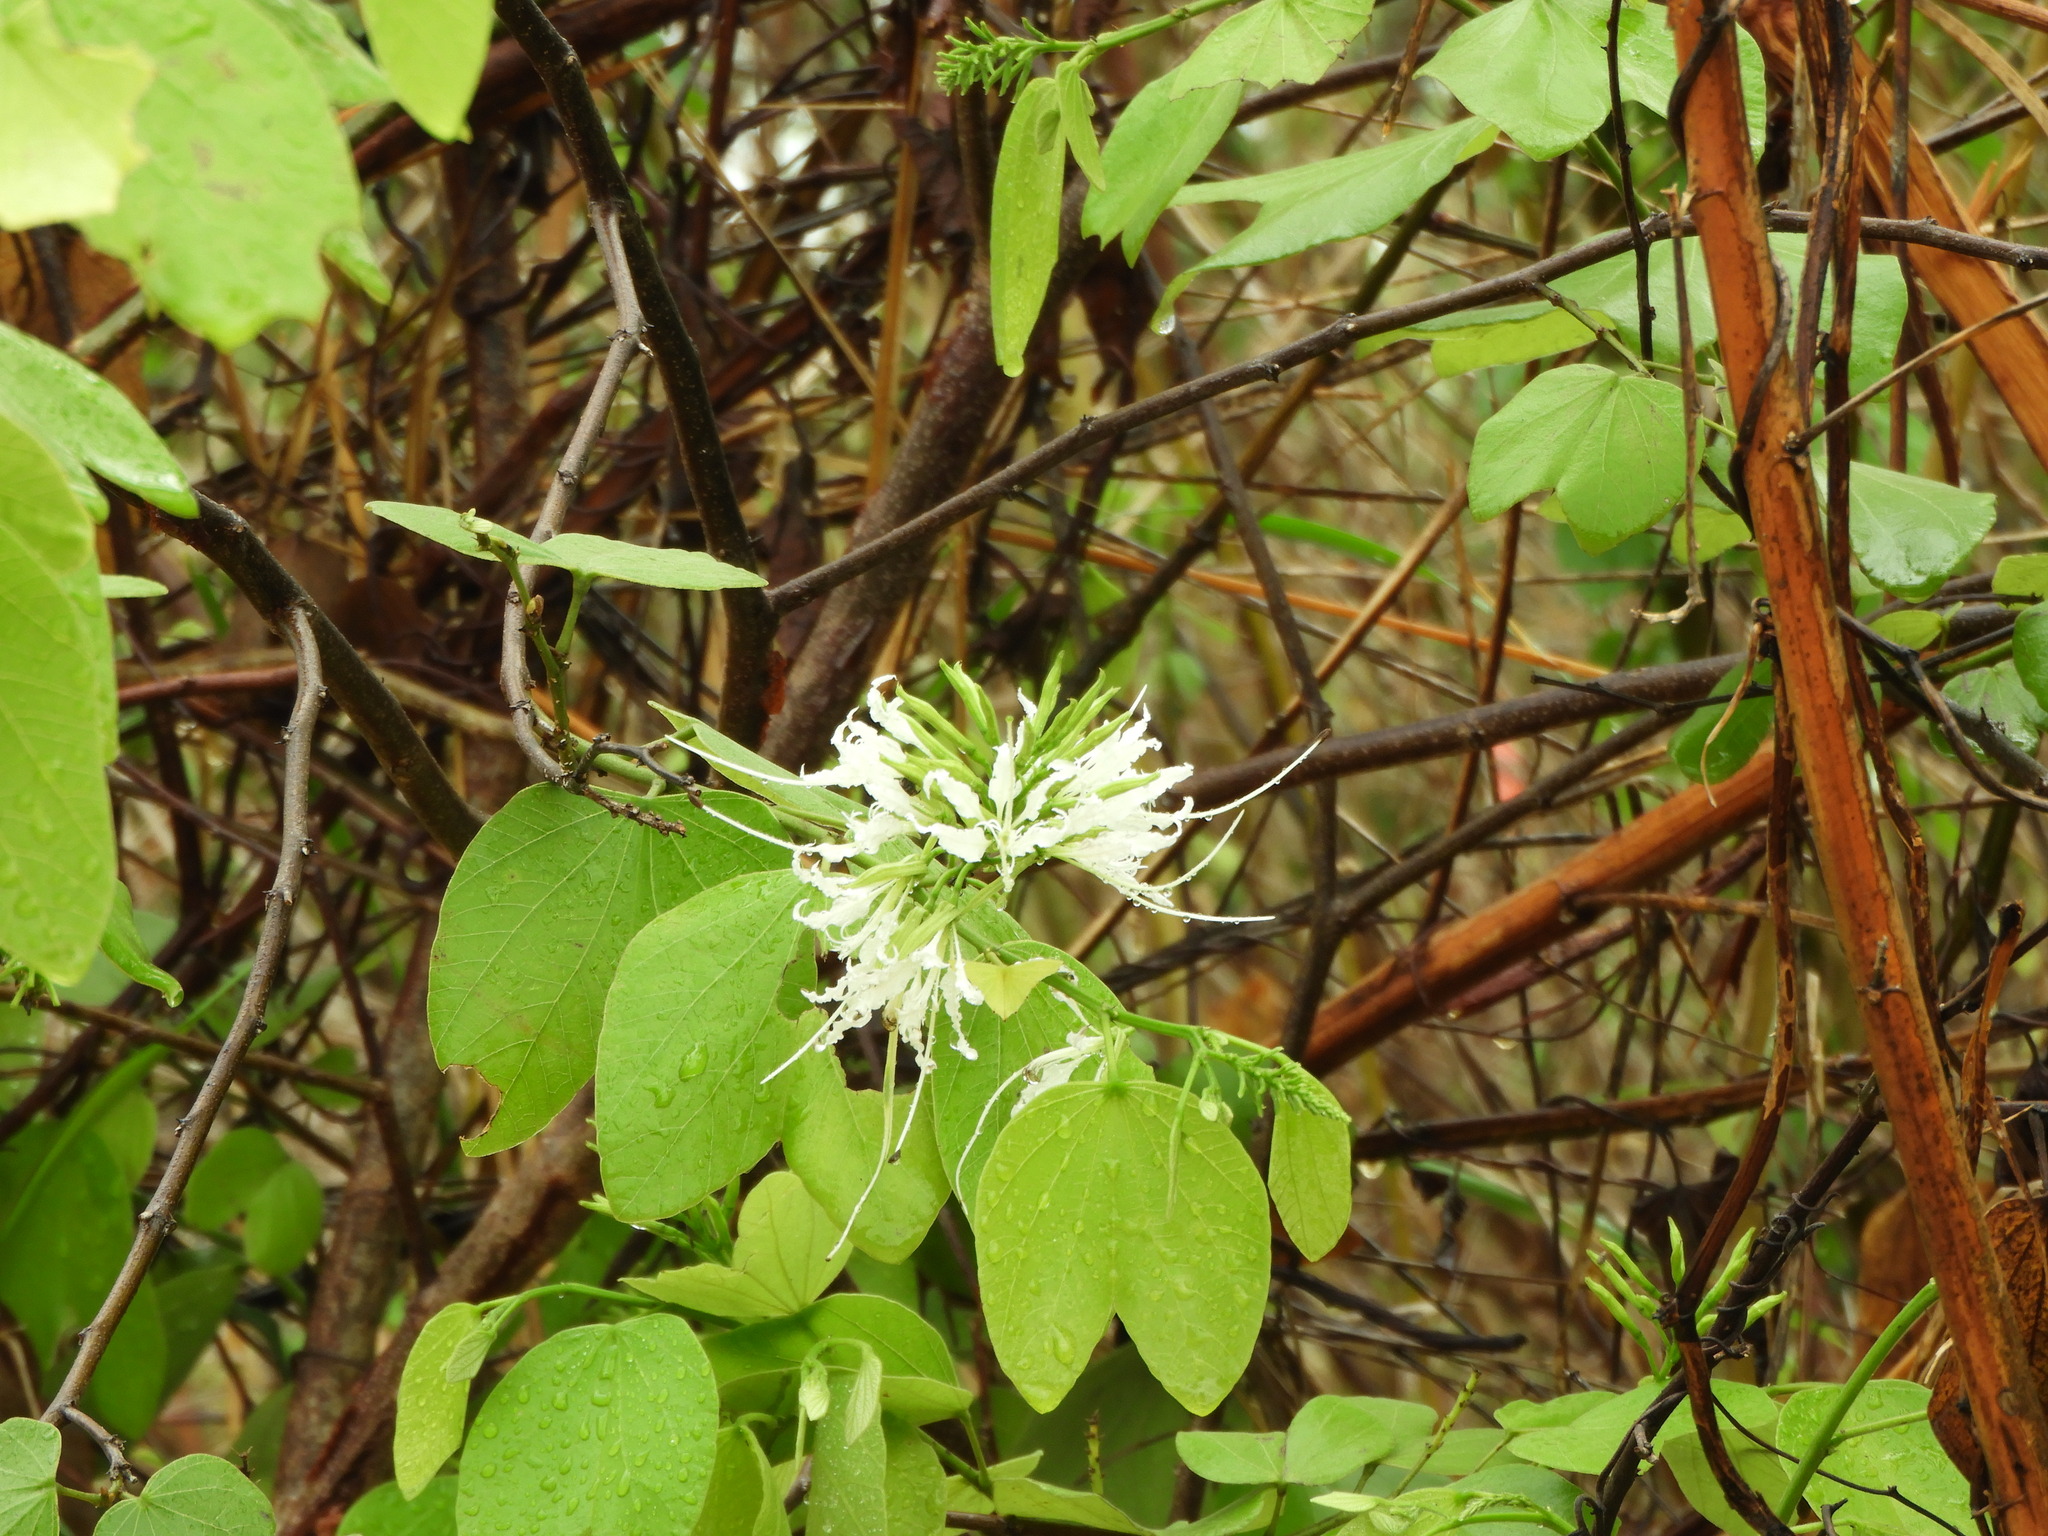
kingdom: Plantae
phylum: Tracheophyta
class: Magnoliopsida
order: Fabales
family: Fabaceae
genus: Bauhinia
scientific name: Bauhinia divaricata
